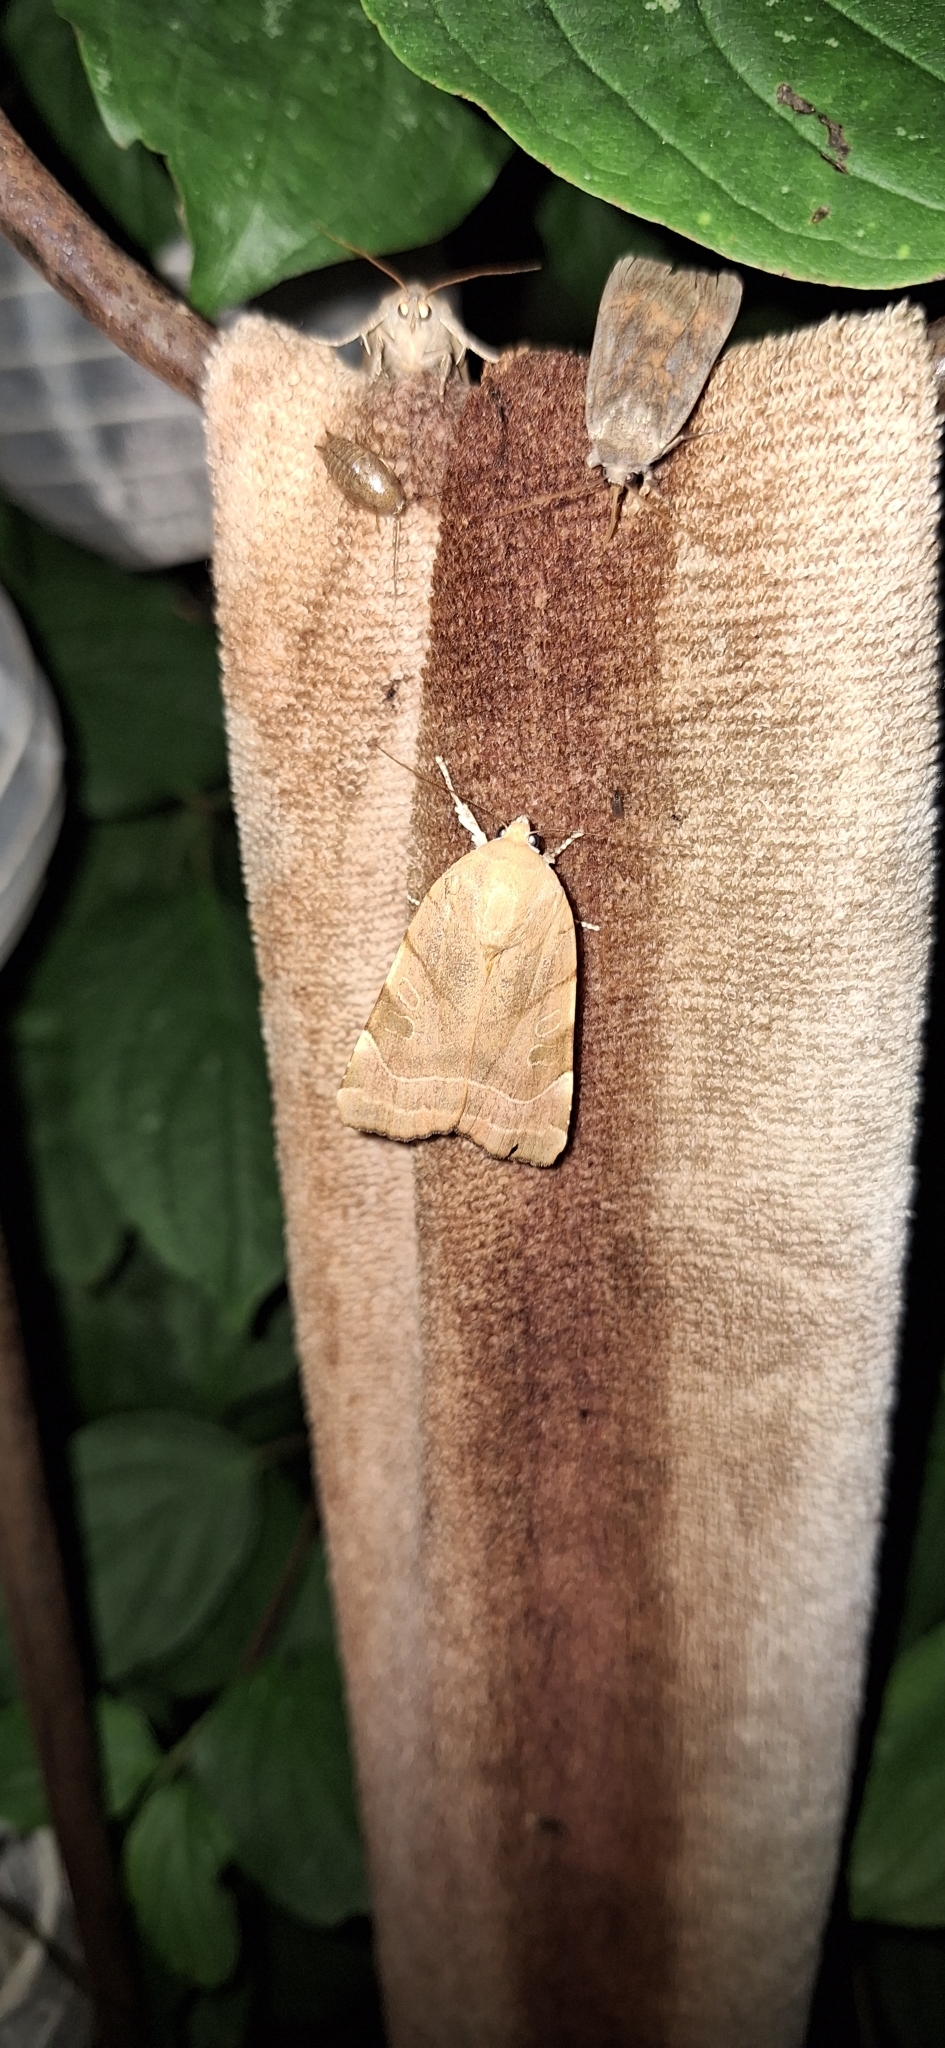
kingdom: Animalia
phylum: Arthropoda
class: Insecta
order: Lepidoptera
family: Noctuidae
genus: Noctua
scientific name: Noctua fimbriata
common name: Broad-bordered yellow underwing
